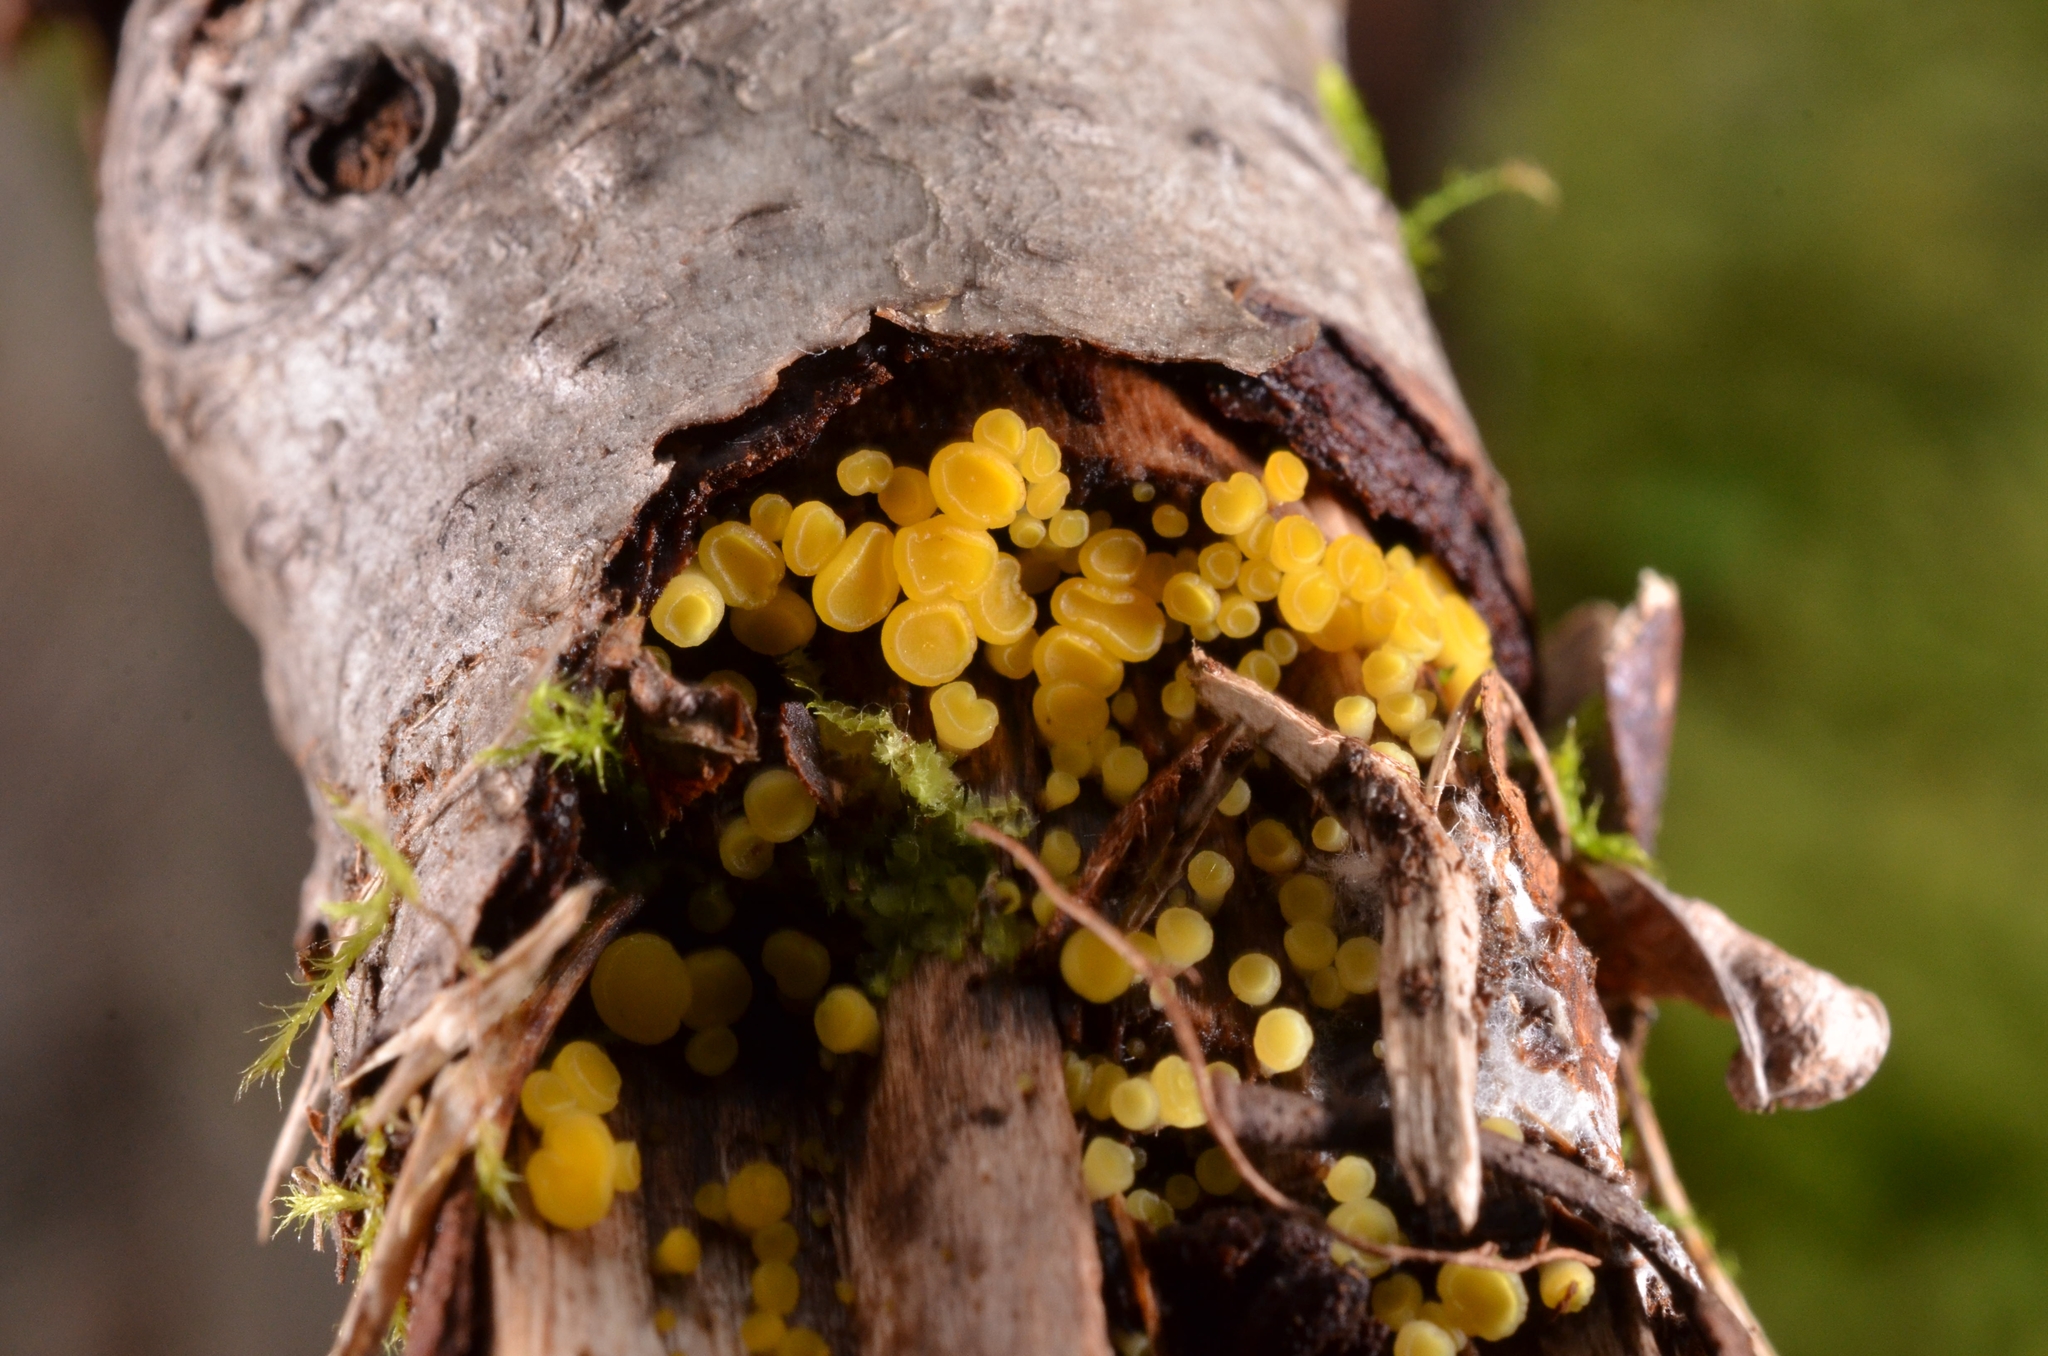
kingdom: Fungi
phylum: Ascomycota
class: Leotiomycetes
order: Helotiales
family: Pezizellaceae
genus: Calycina
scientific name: Calycina citrina
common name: Yellow fairy cups
